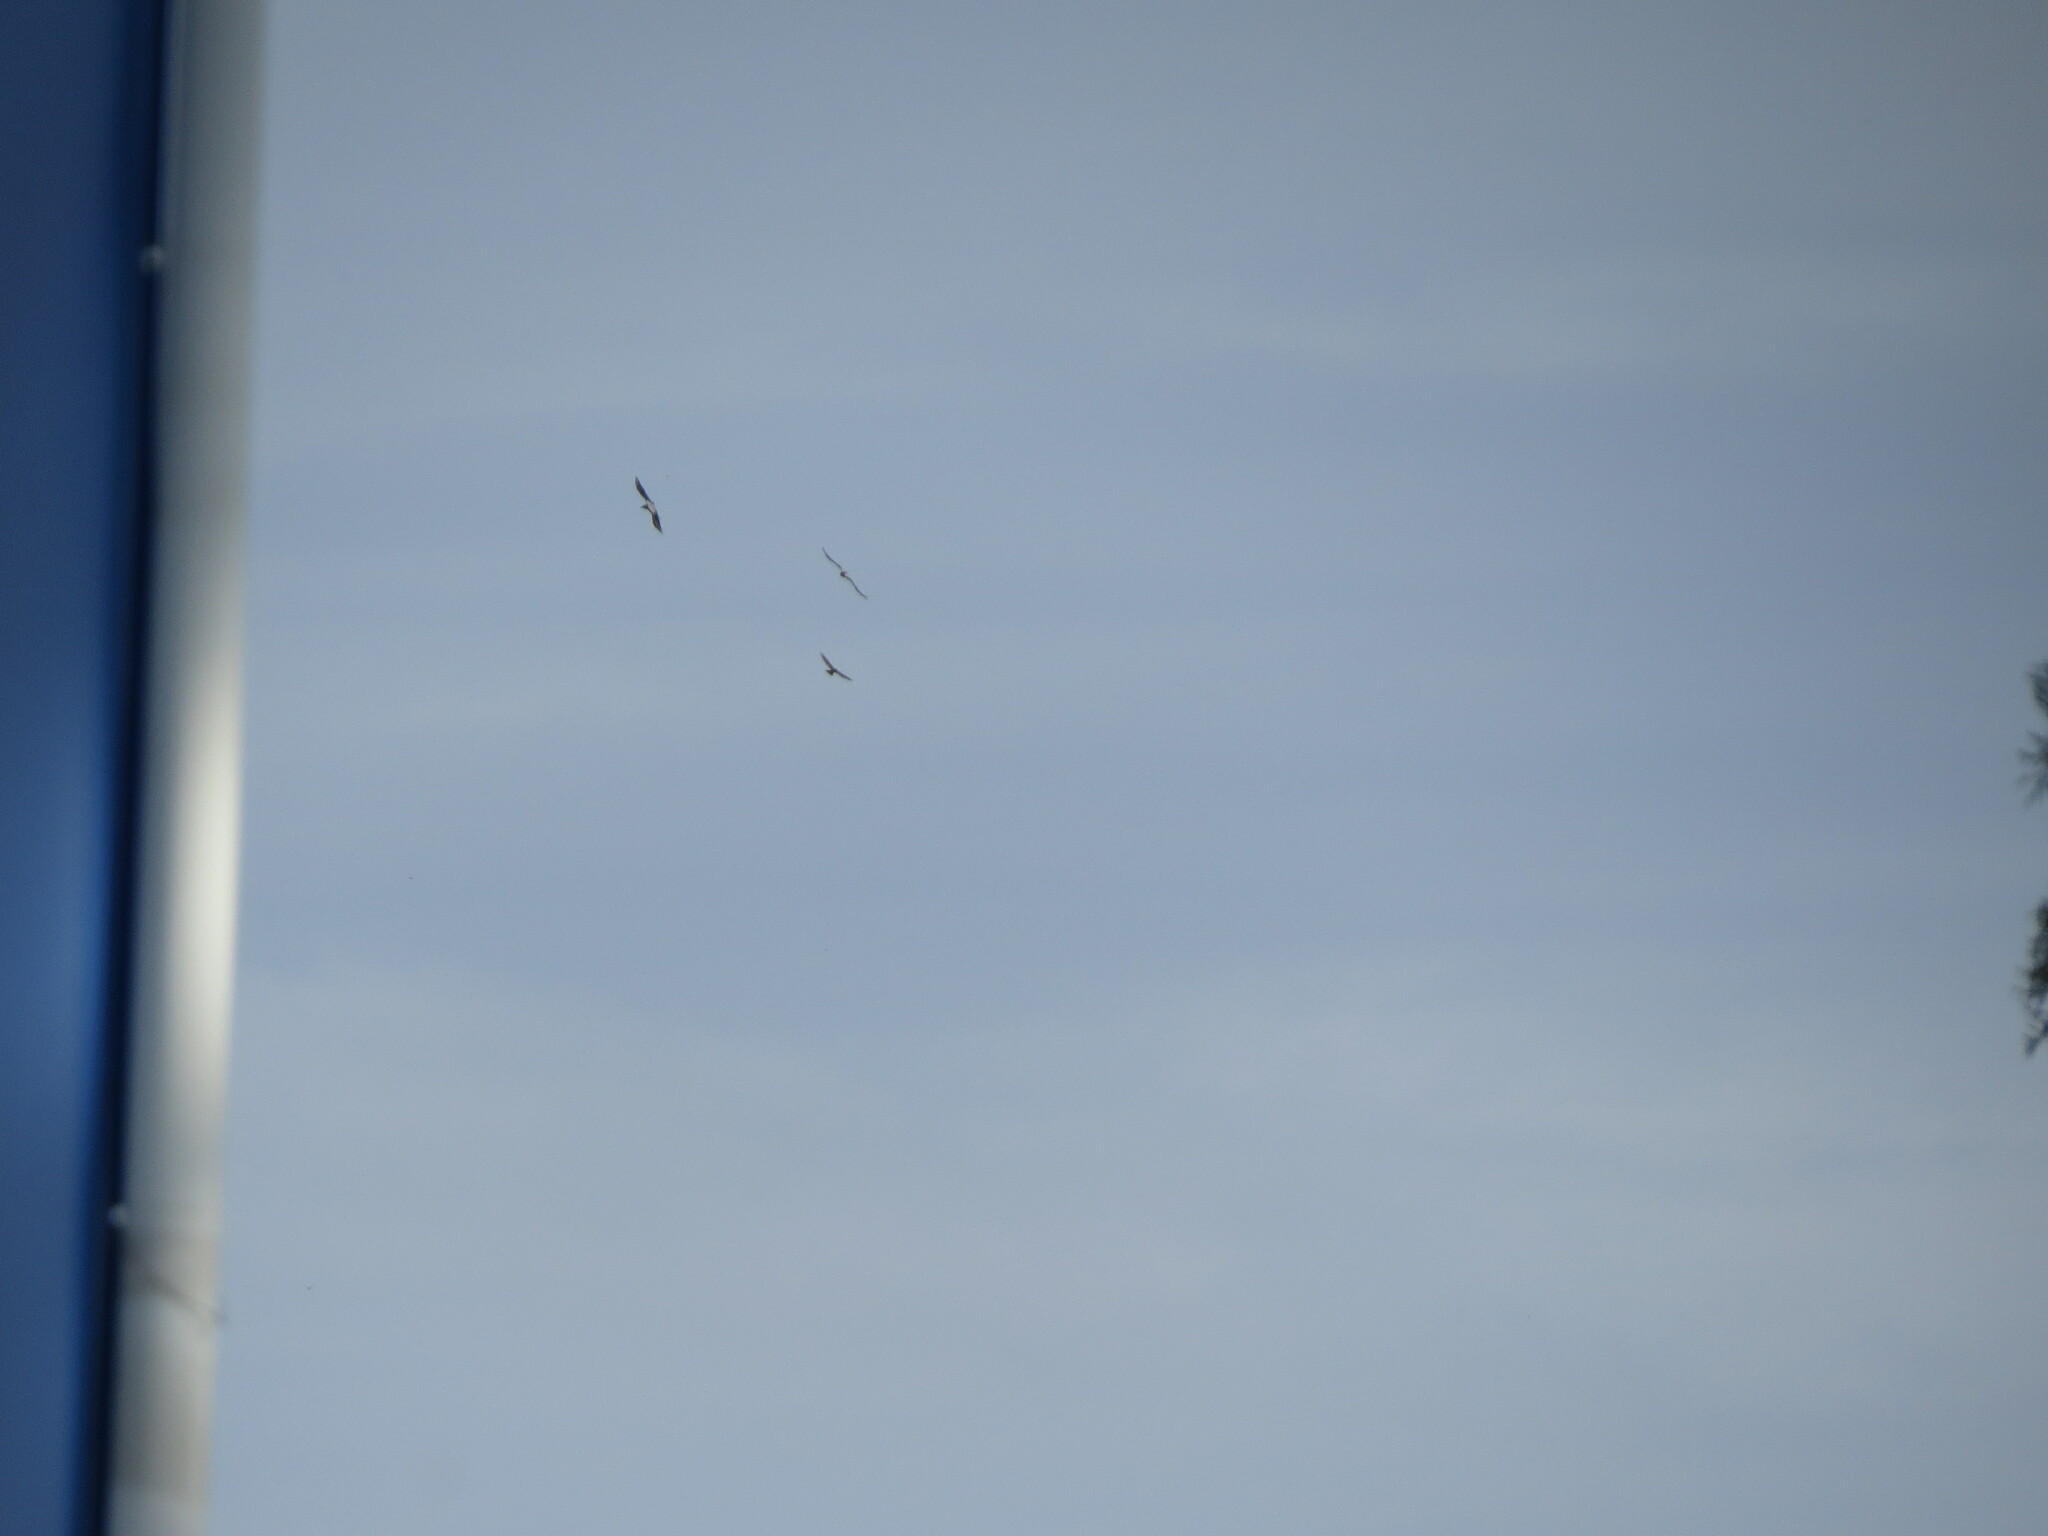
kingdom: Animalia
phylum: Chordata
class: Aves
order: Accipitriformes
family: Accipitridae
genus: Accipiter
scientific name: Accipiter nisus
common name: Eurasian sparrowhawk
